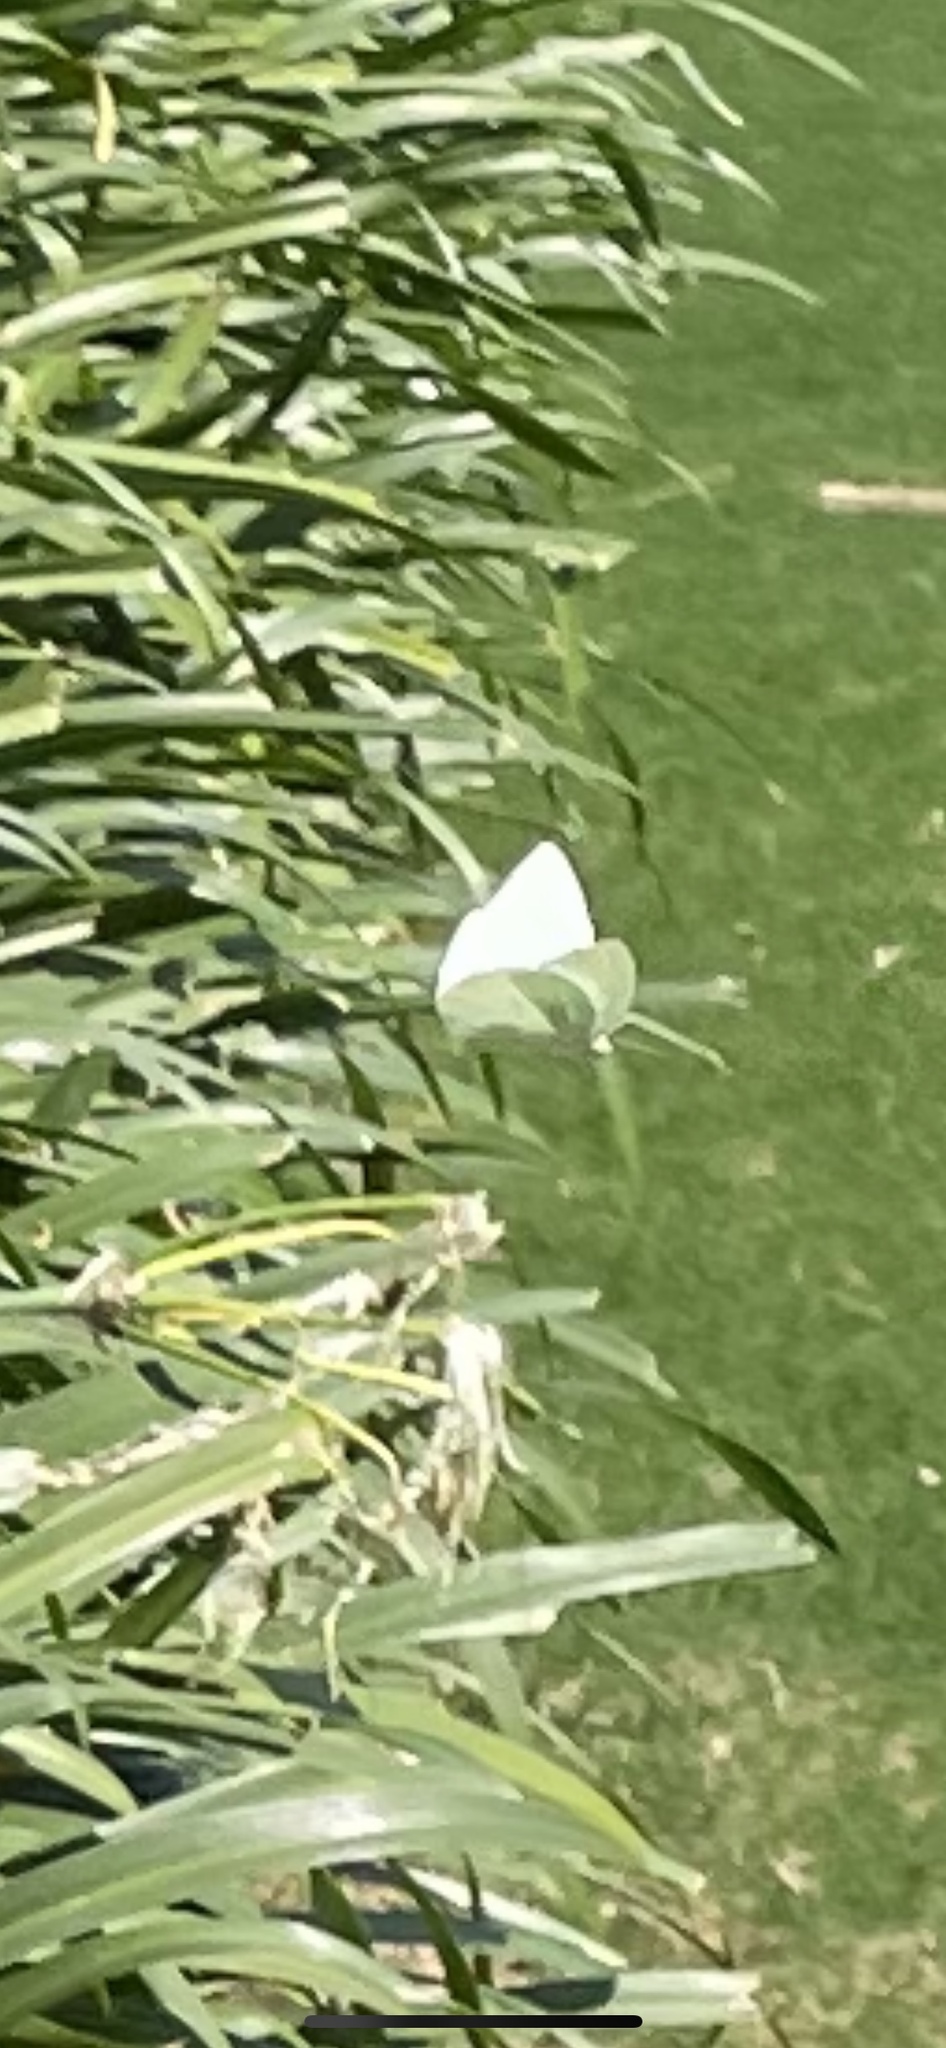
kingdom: Animalia
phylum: Arthropoda
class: Insecta
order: Lepidoptera
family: Pieridae
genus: Catopsilia
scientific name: Catopsilia florella
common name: African migrant
